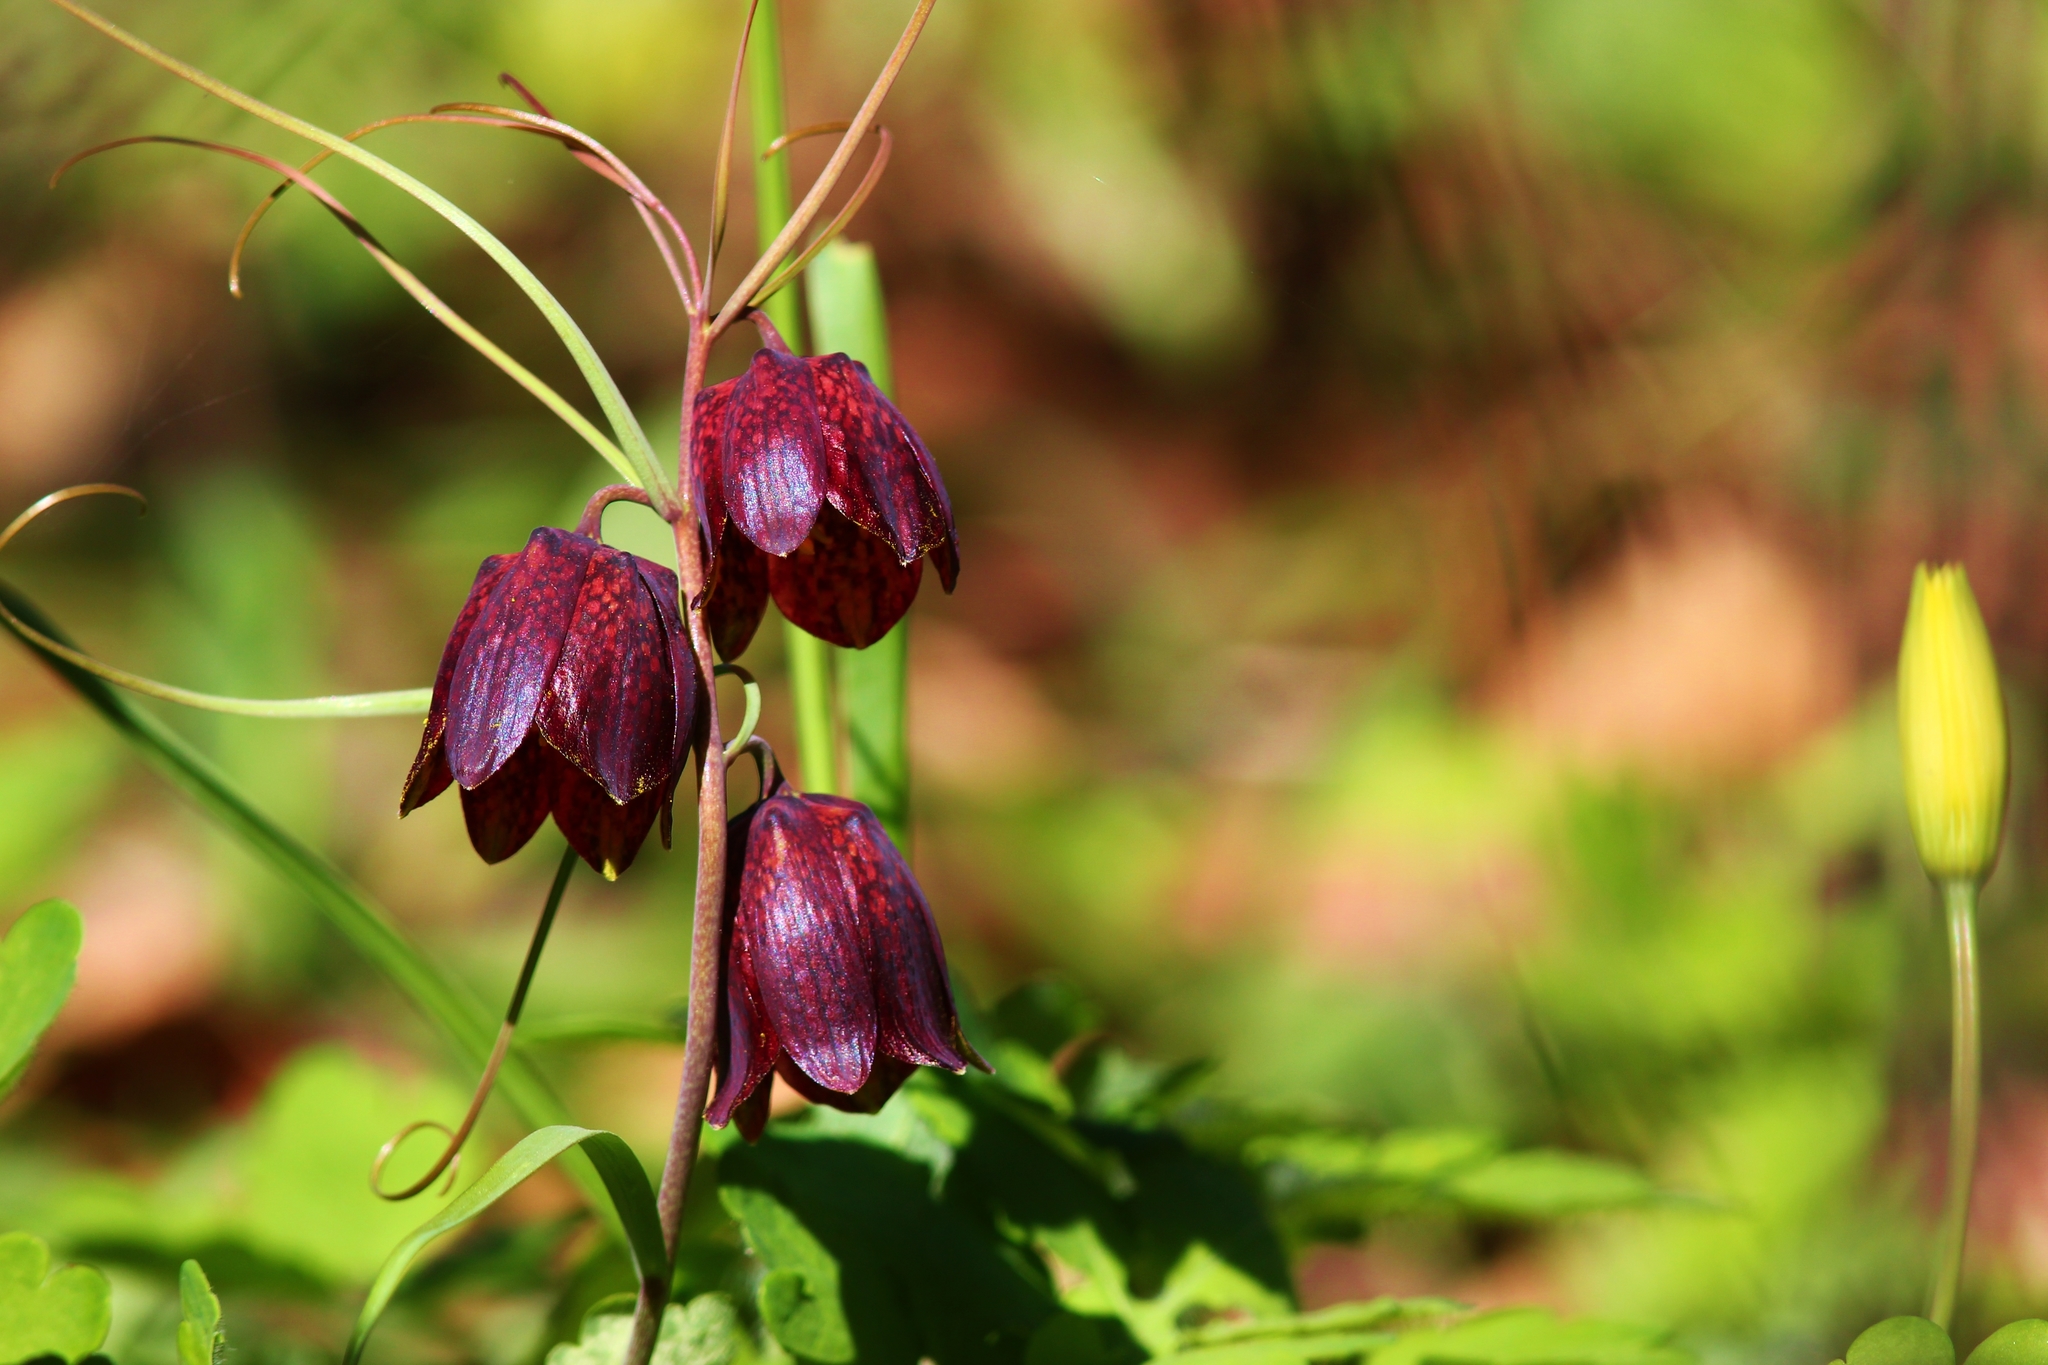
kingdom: Plantae
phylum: Tracheophyta
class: Liliopsida
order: Liliales
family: Liliaceae
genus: Fritillaria
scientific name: Fritillaria ruthenica
